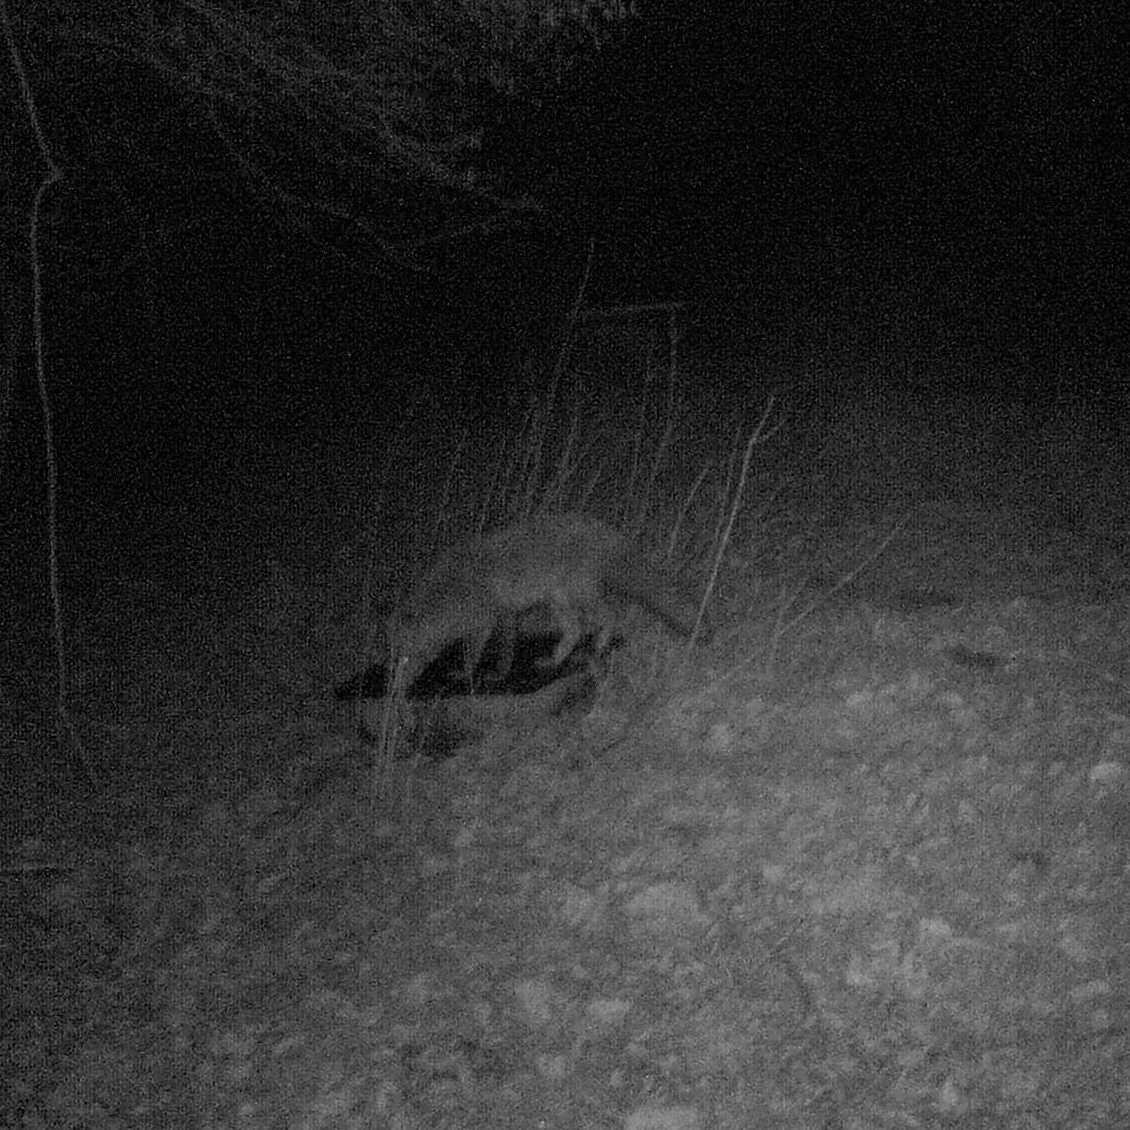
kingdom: Animalia
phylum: Chordata
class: Mammalia
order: Carnivora
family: Canidae
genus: Vulpes
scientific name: Vulpes vulpes
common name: Red fox
